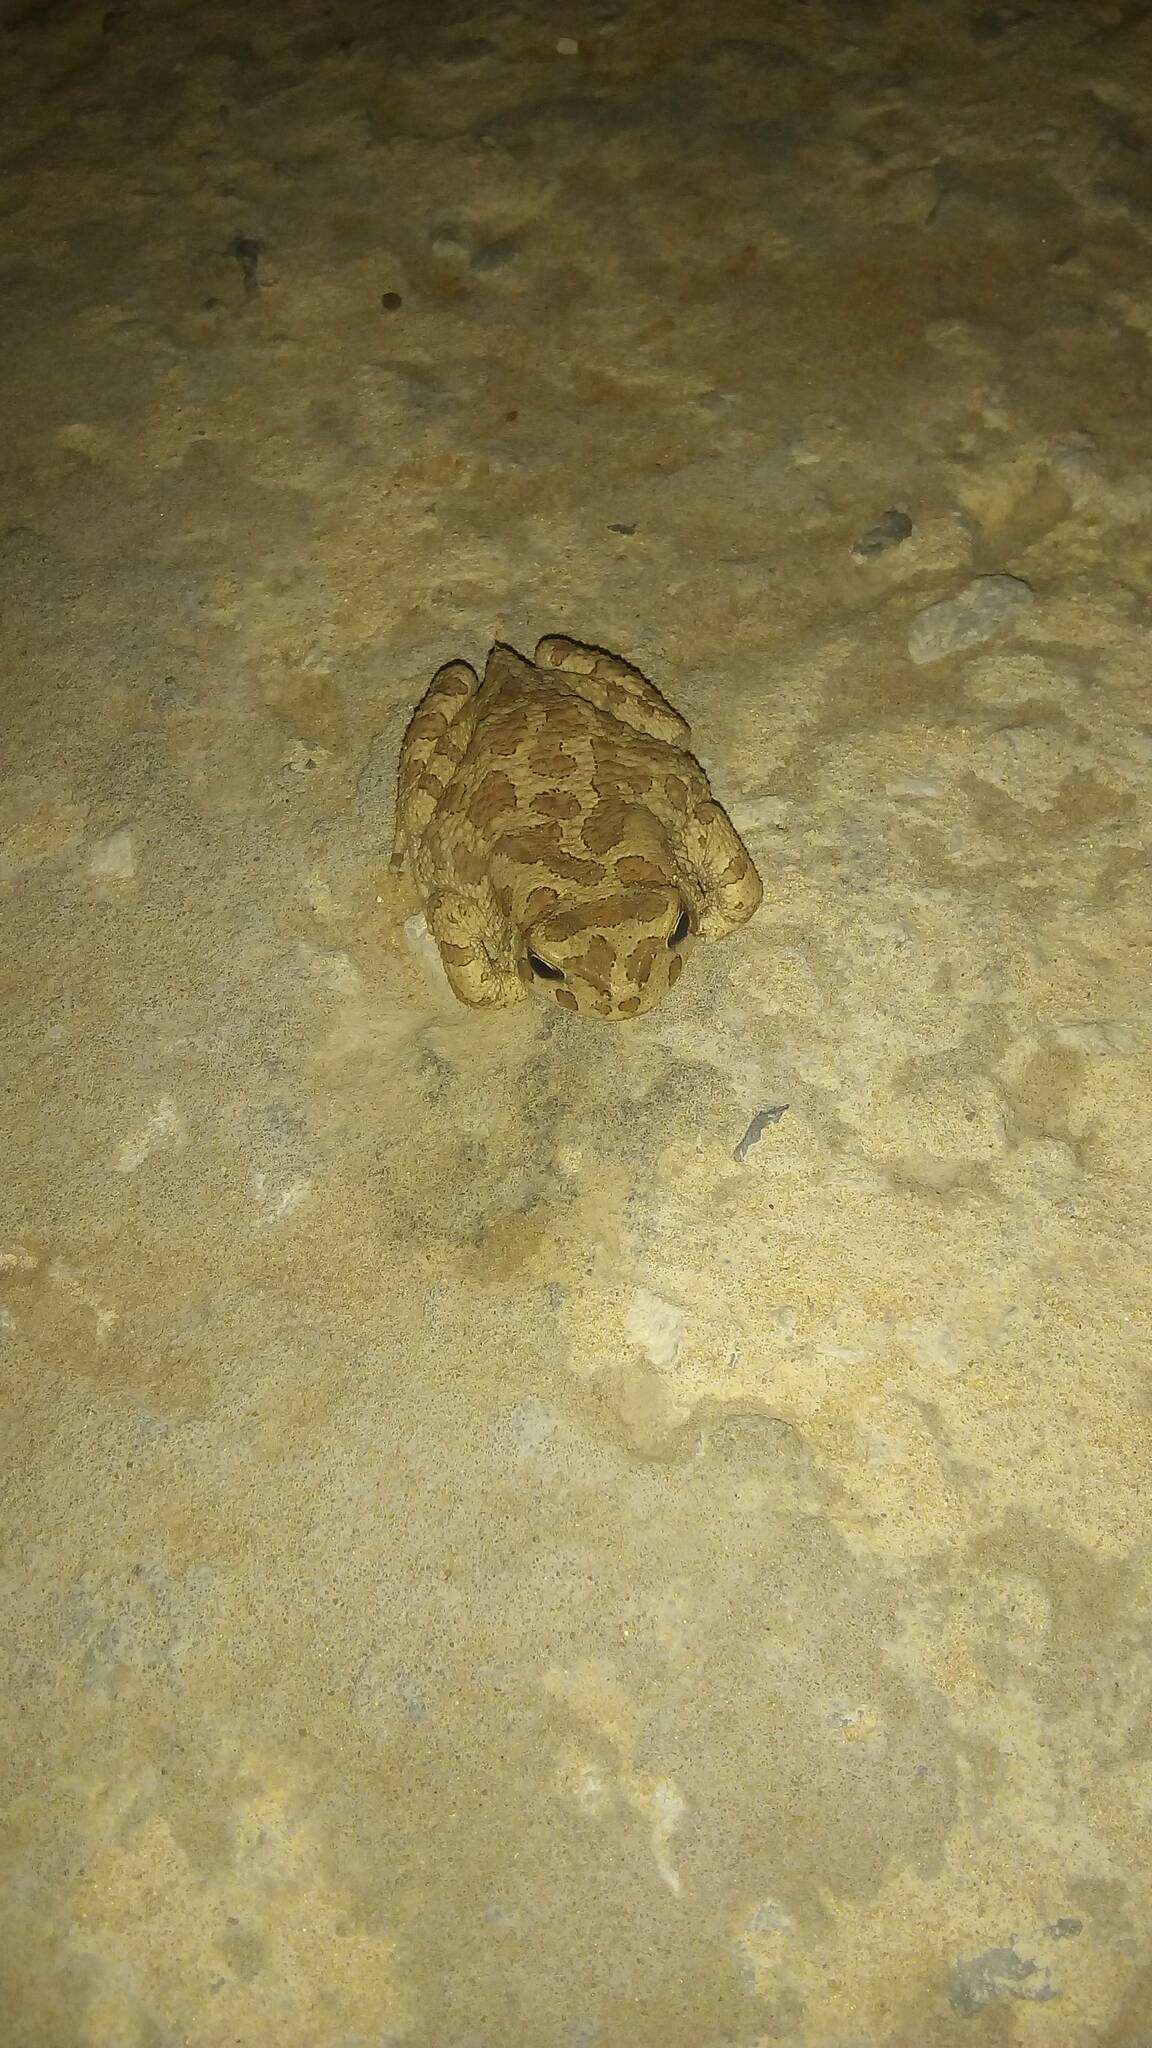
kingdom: Animalia
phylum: Chordata
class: Amphibia
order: Anura
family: Bufonidae
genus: Sclerophrys
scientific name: Sclerophrys mauritanica
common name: Berber toad
